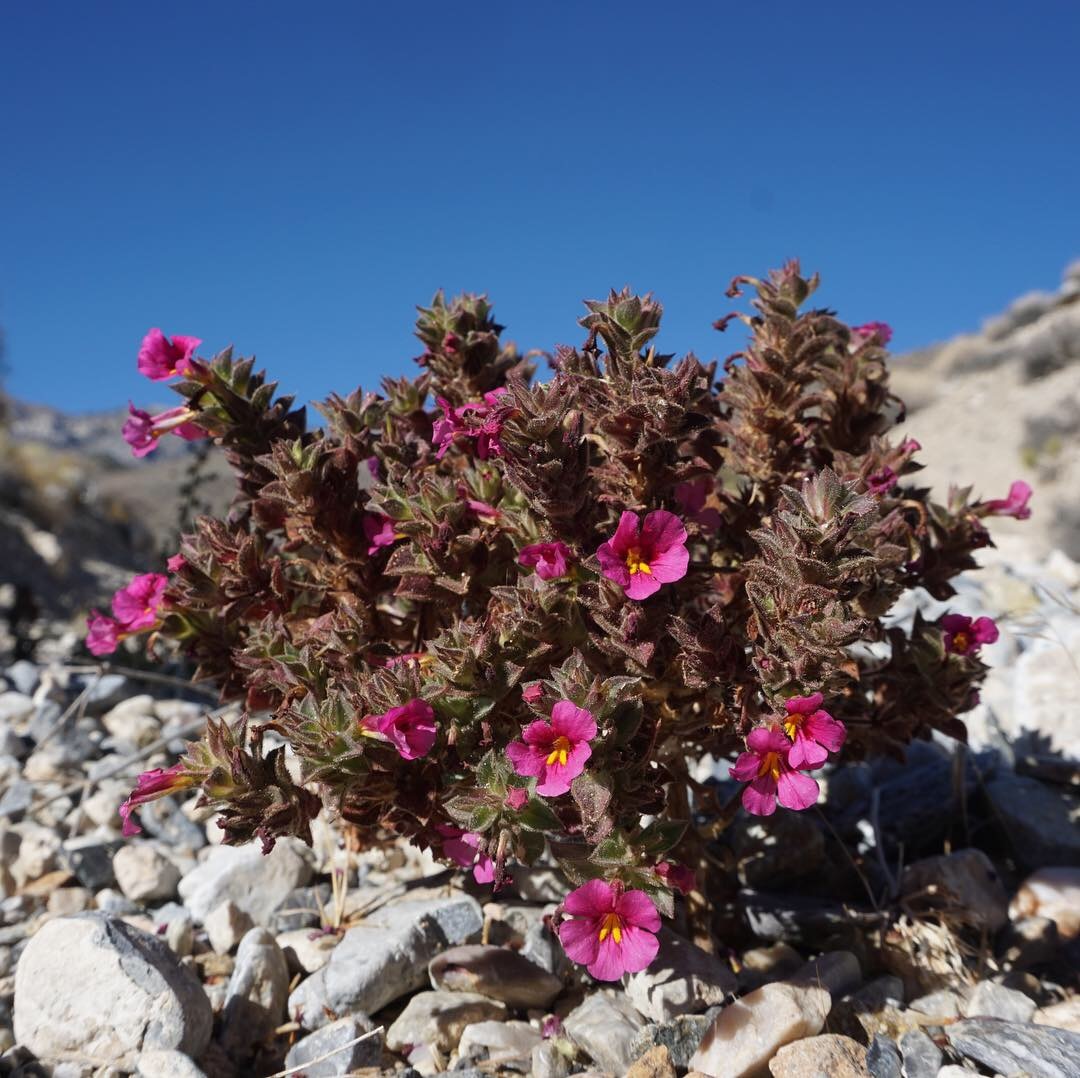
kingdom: Plantae
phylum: Tracheophyta
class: Magnoliopsida
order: Lamiales
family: Phrymaceae
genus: Diplacus
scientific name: Diplacus bigelovii
